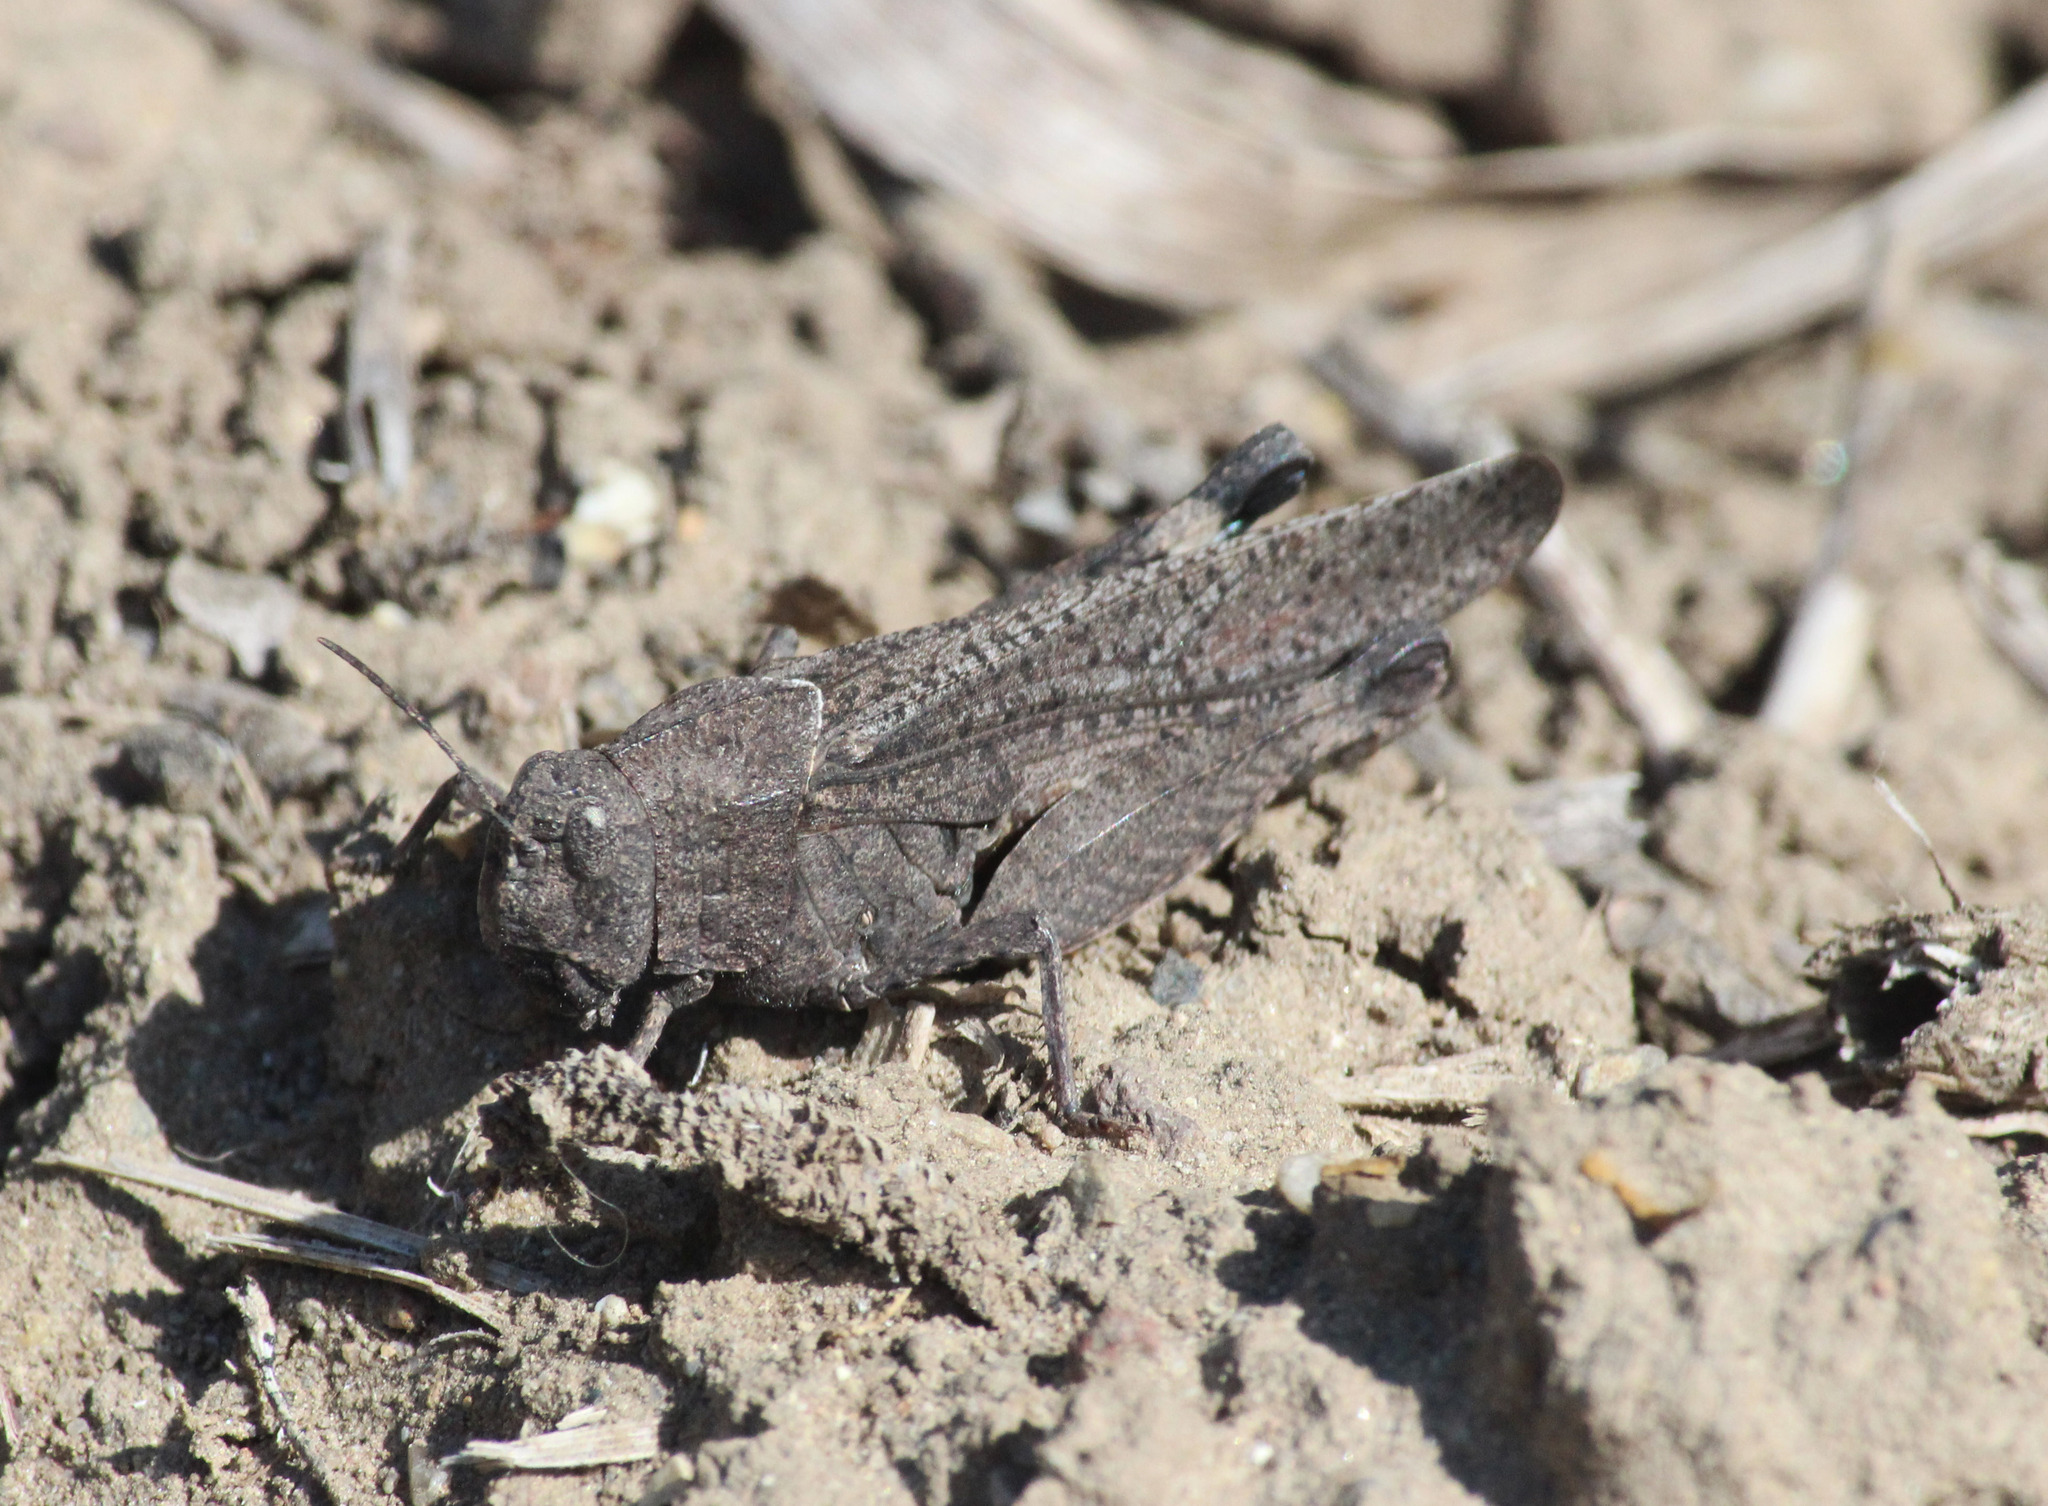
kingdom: Animalia
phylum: Arthropoda
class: Insecta
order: Orthoptera
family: Acrididae
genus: Arphia
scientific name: Arphia ramona
